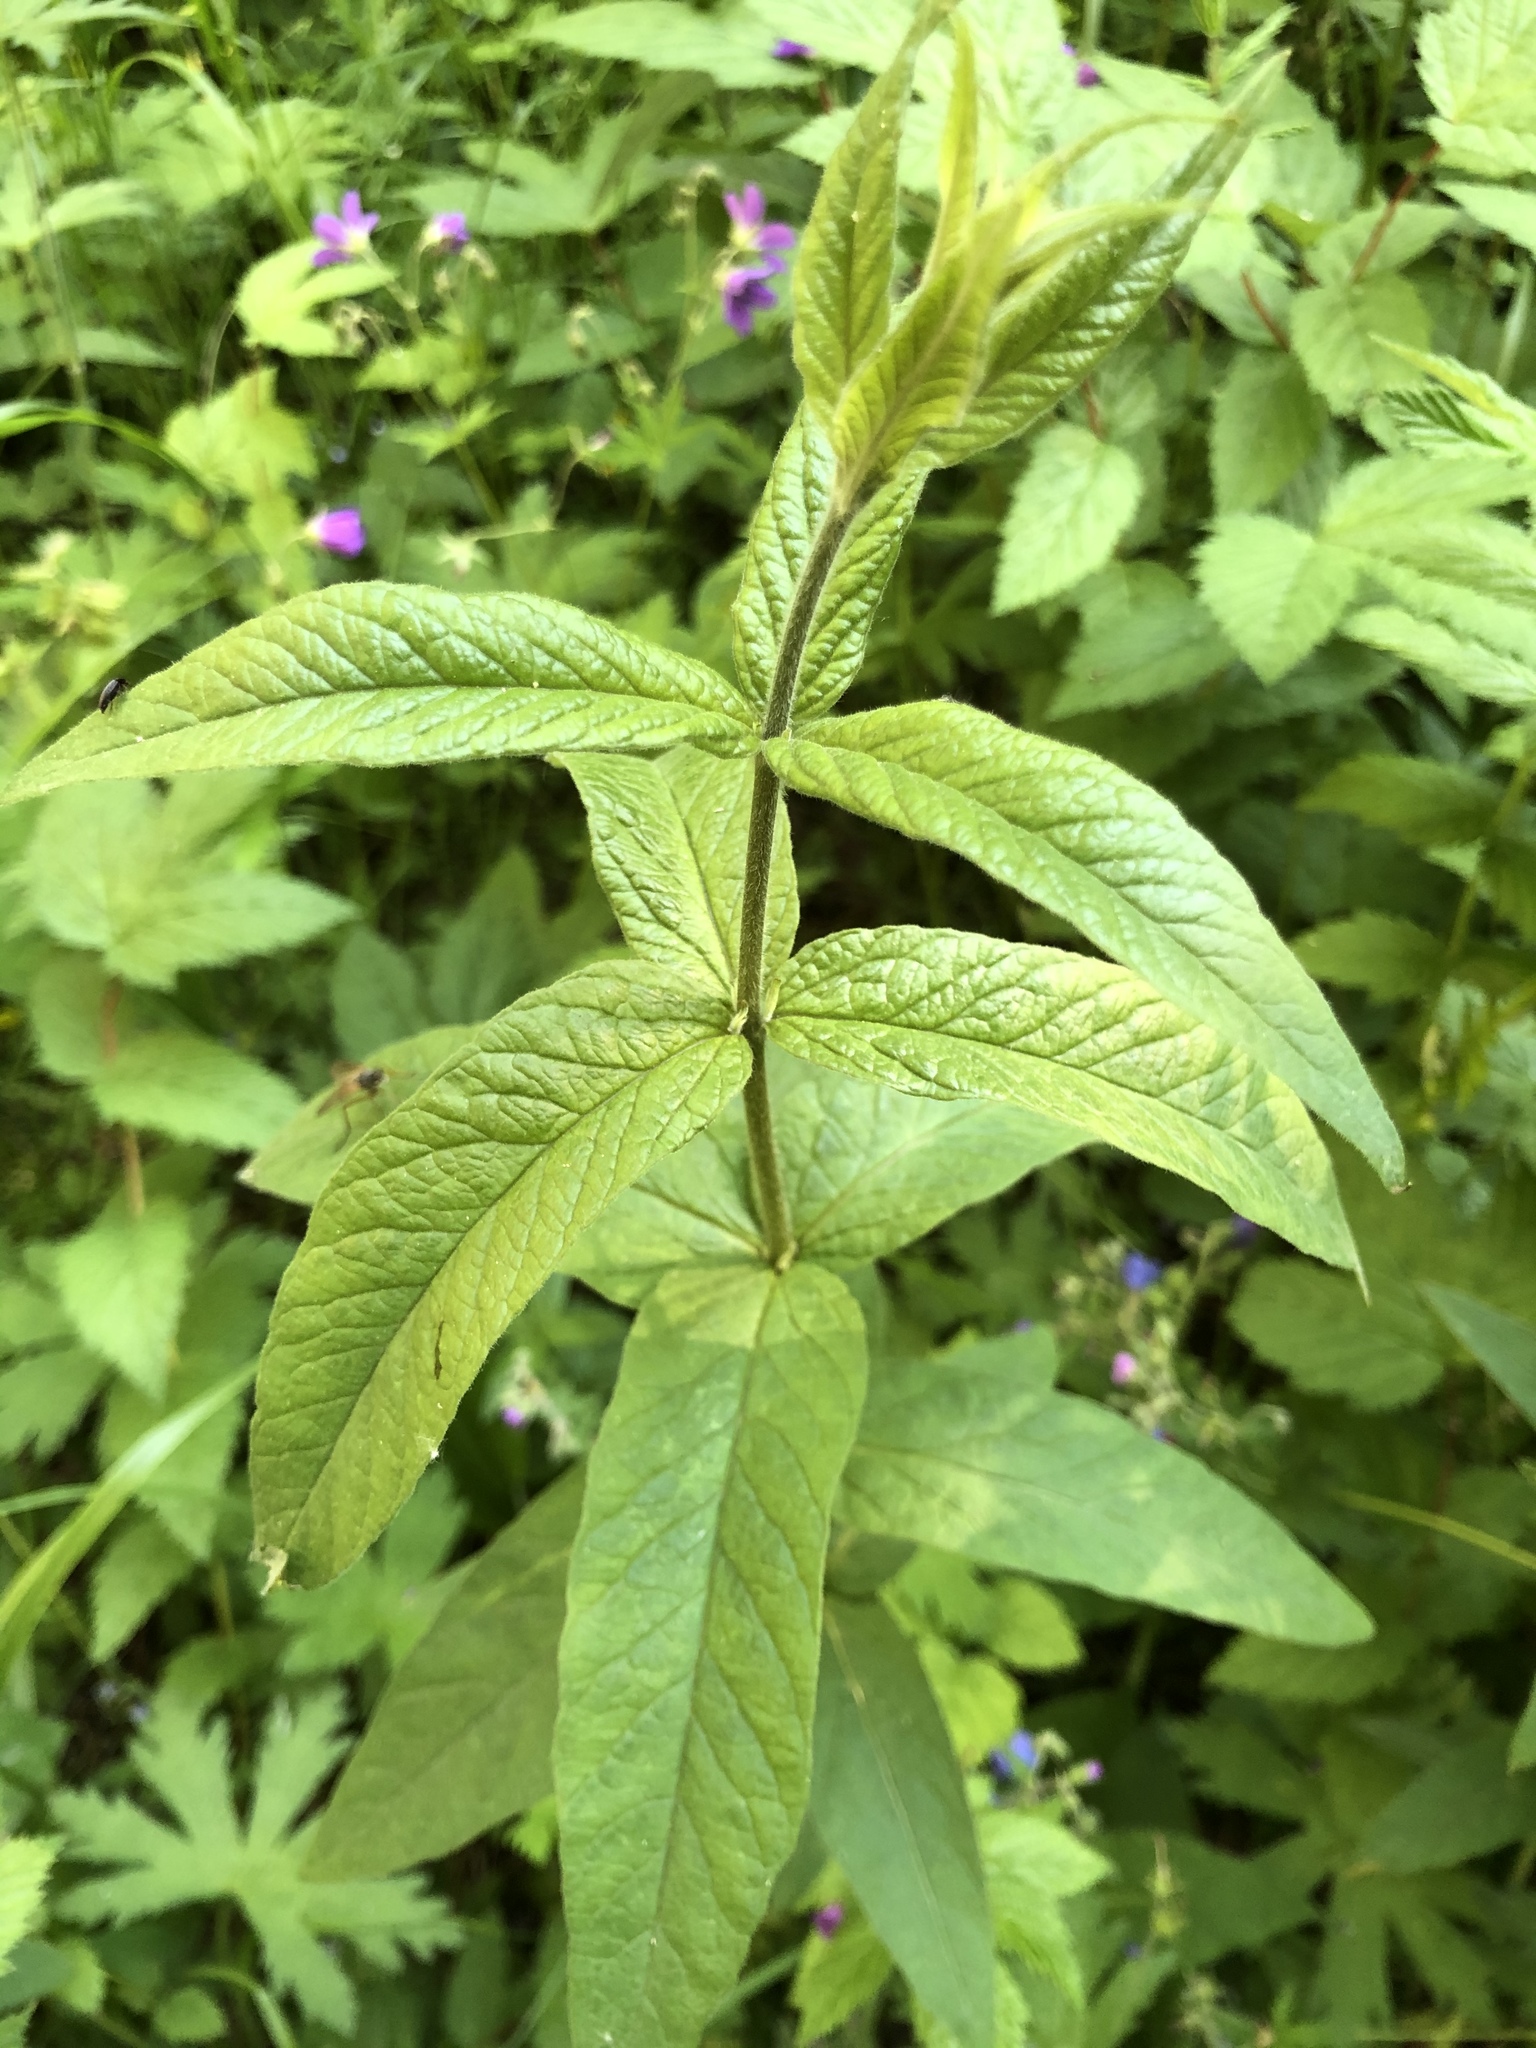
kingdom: Plantae
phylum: Tracheophyta
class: Magnoliopsida
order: Ericales
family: Primulaceae
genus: Lysimachia
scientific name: Lysimachia vulgaris
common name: Yellow loosestrife
